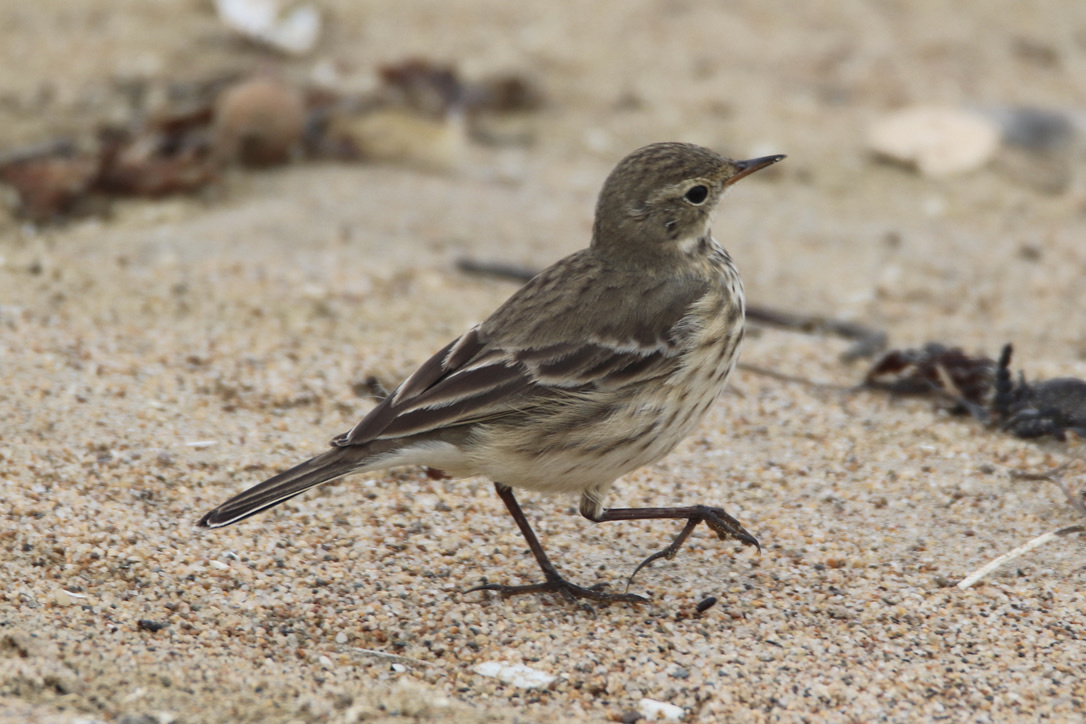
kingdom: Animalia
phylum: Chordata
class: Aves
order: Passeriformes
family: Motacillidae
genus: Anthus
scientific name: Anthus rubescens
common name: Buff-bellied pipit
